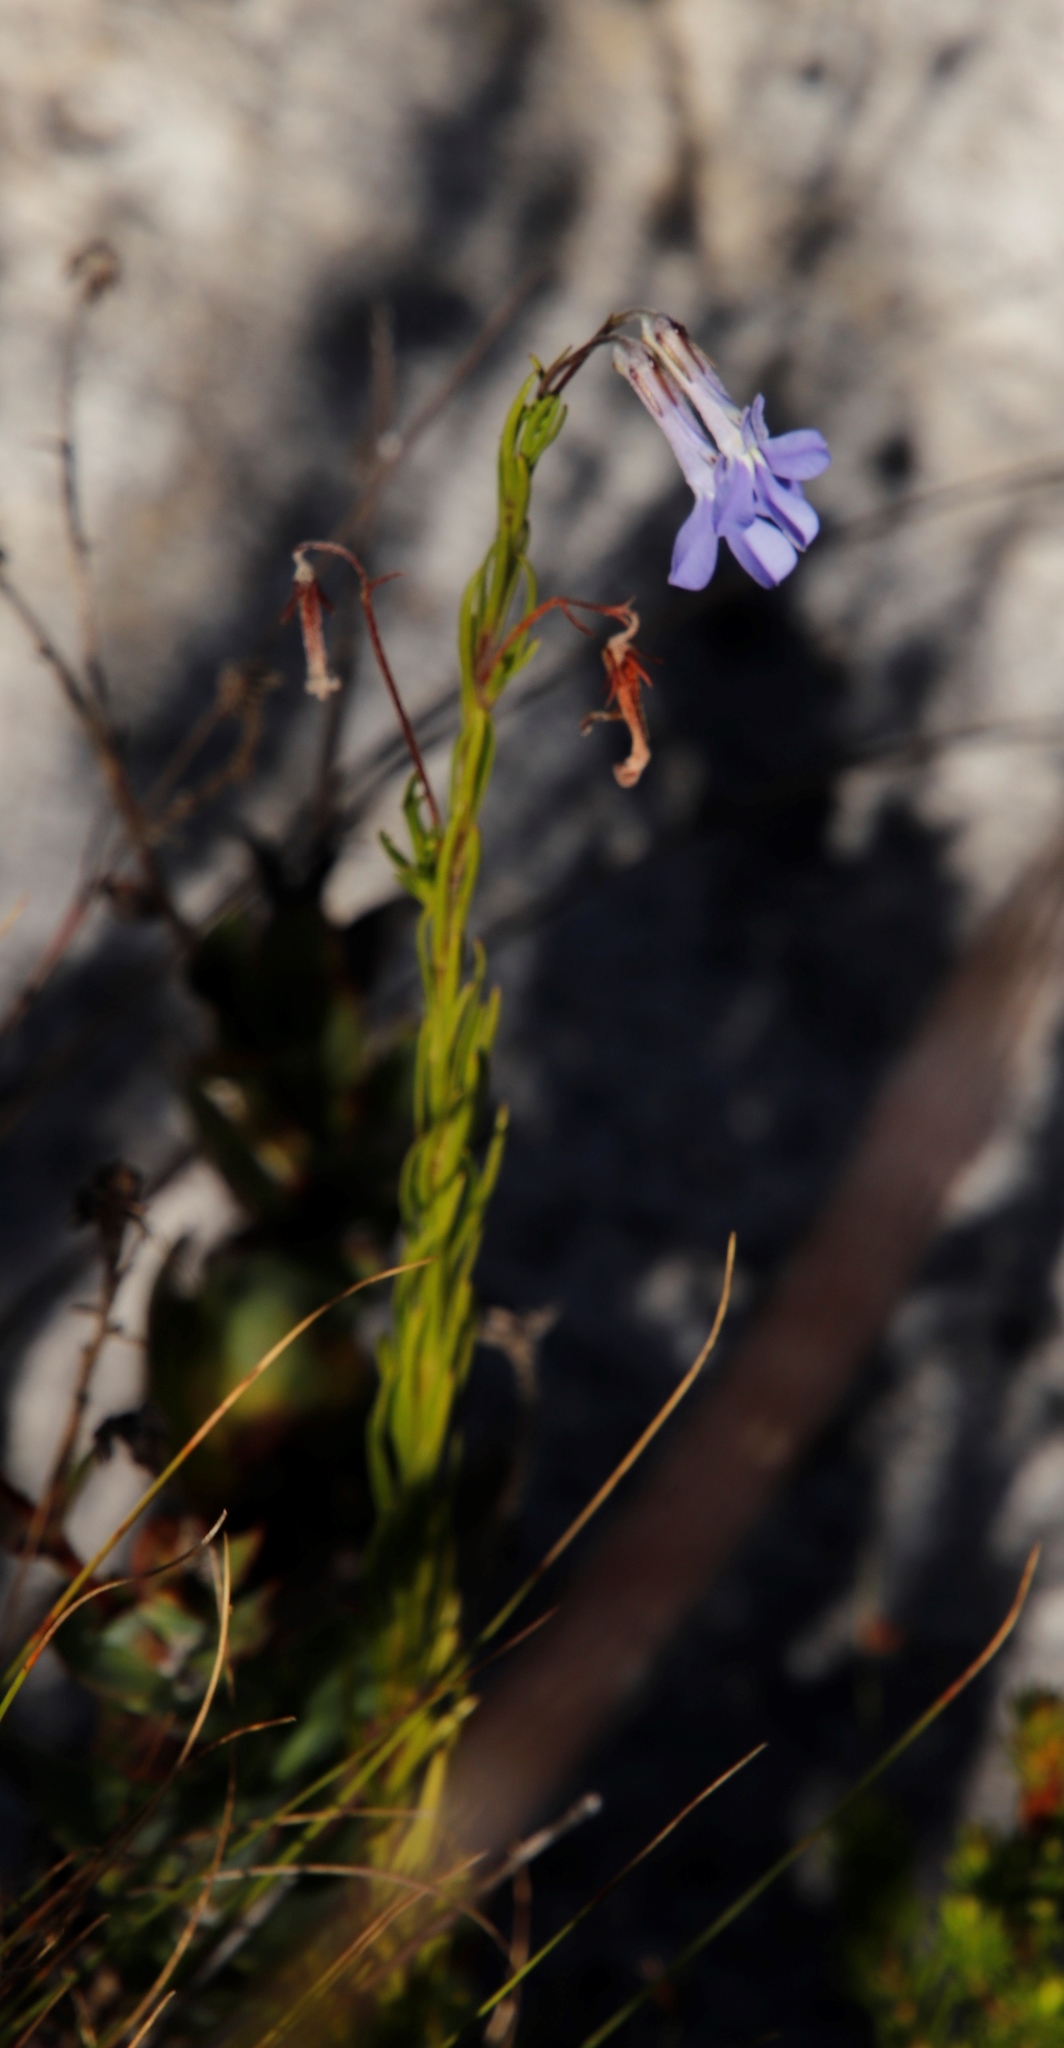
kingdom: Plantae
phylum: Tracheophyta
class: Magnoliopsida
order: Asterales
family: Campanulaceae
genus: Lobelia
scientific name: Lobelia pinifolia
